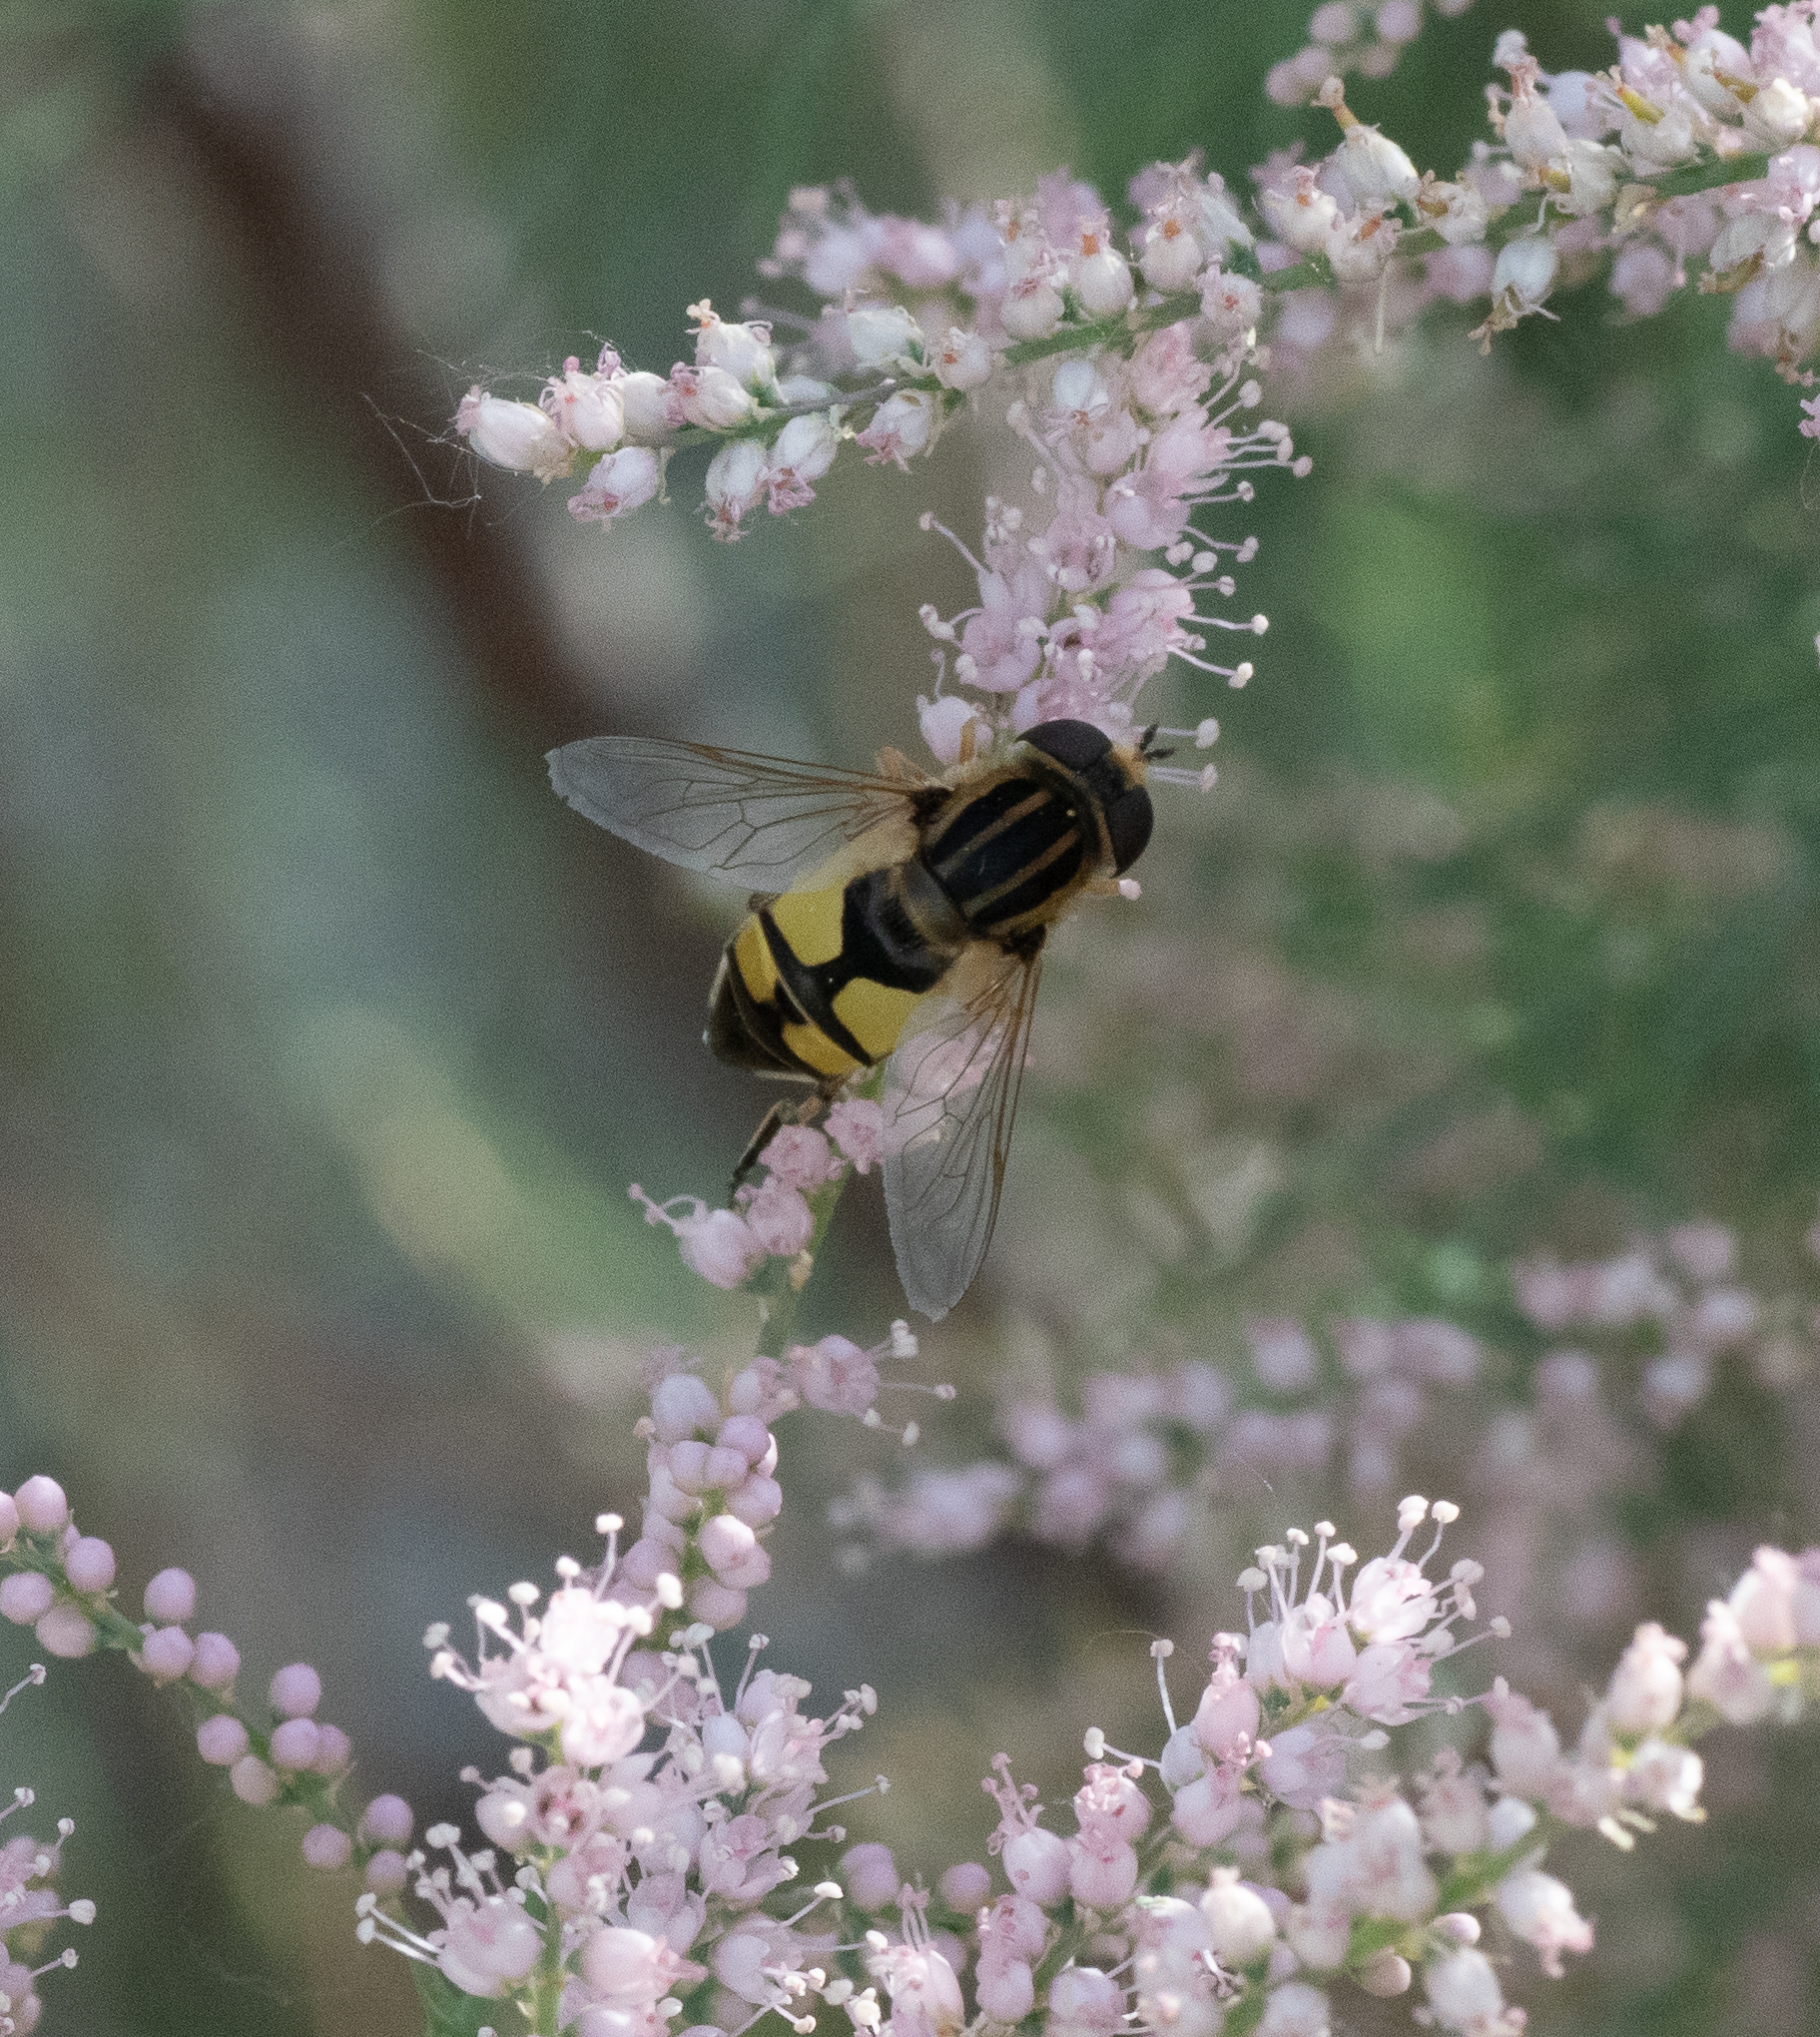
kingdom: Animalia
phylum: Arthropoda
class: Insecta
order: Diptera
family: Syrphidae
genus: Helophilus
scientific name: Helophilus latifrons
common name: Broad-headed marsh fly
